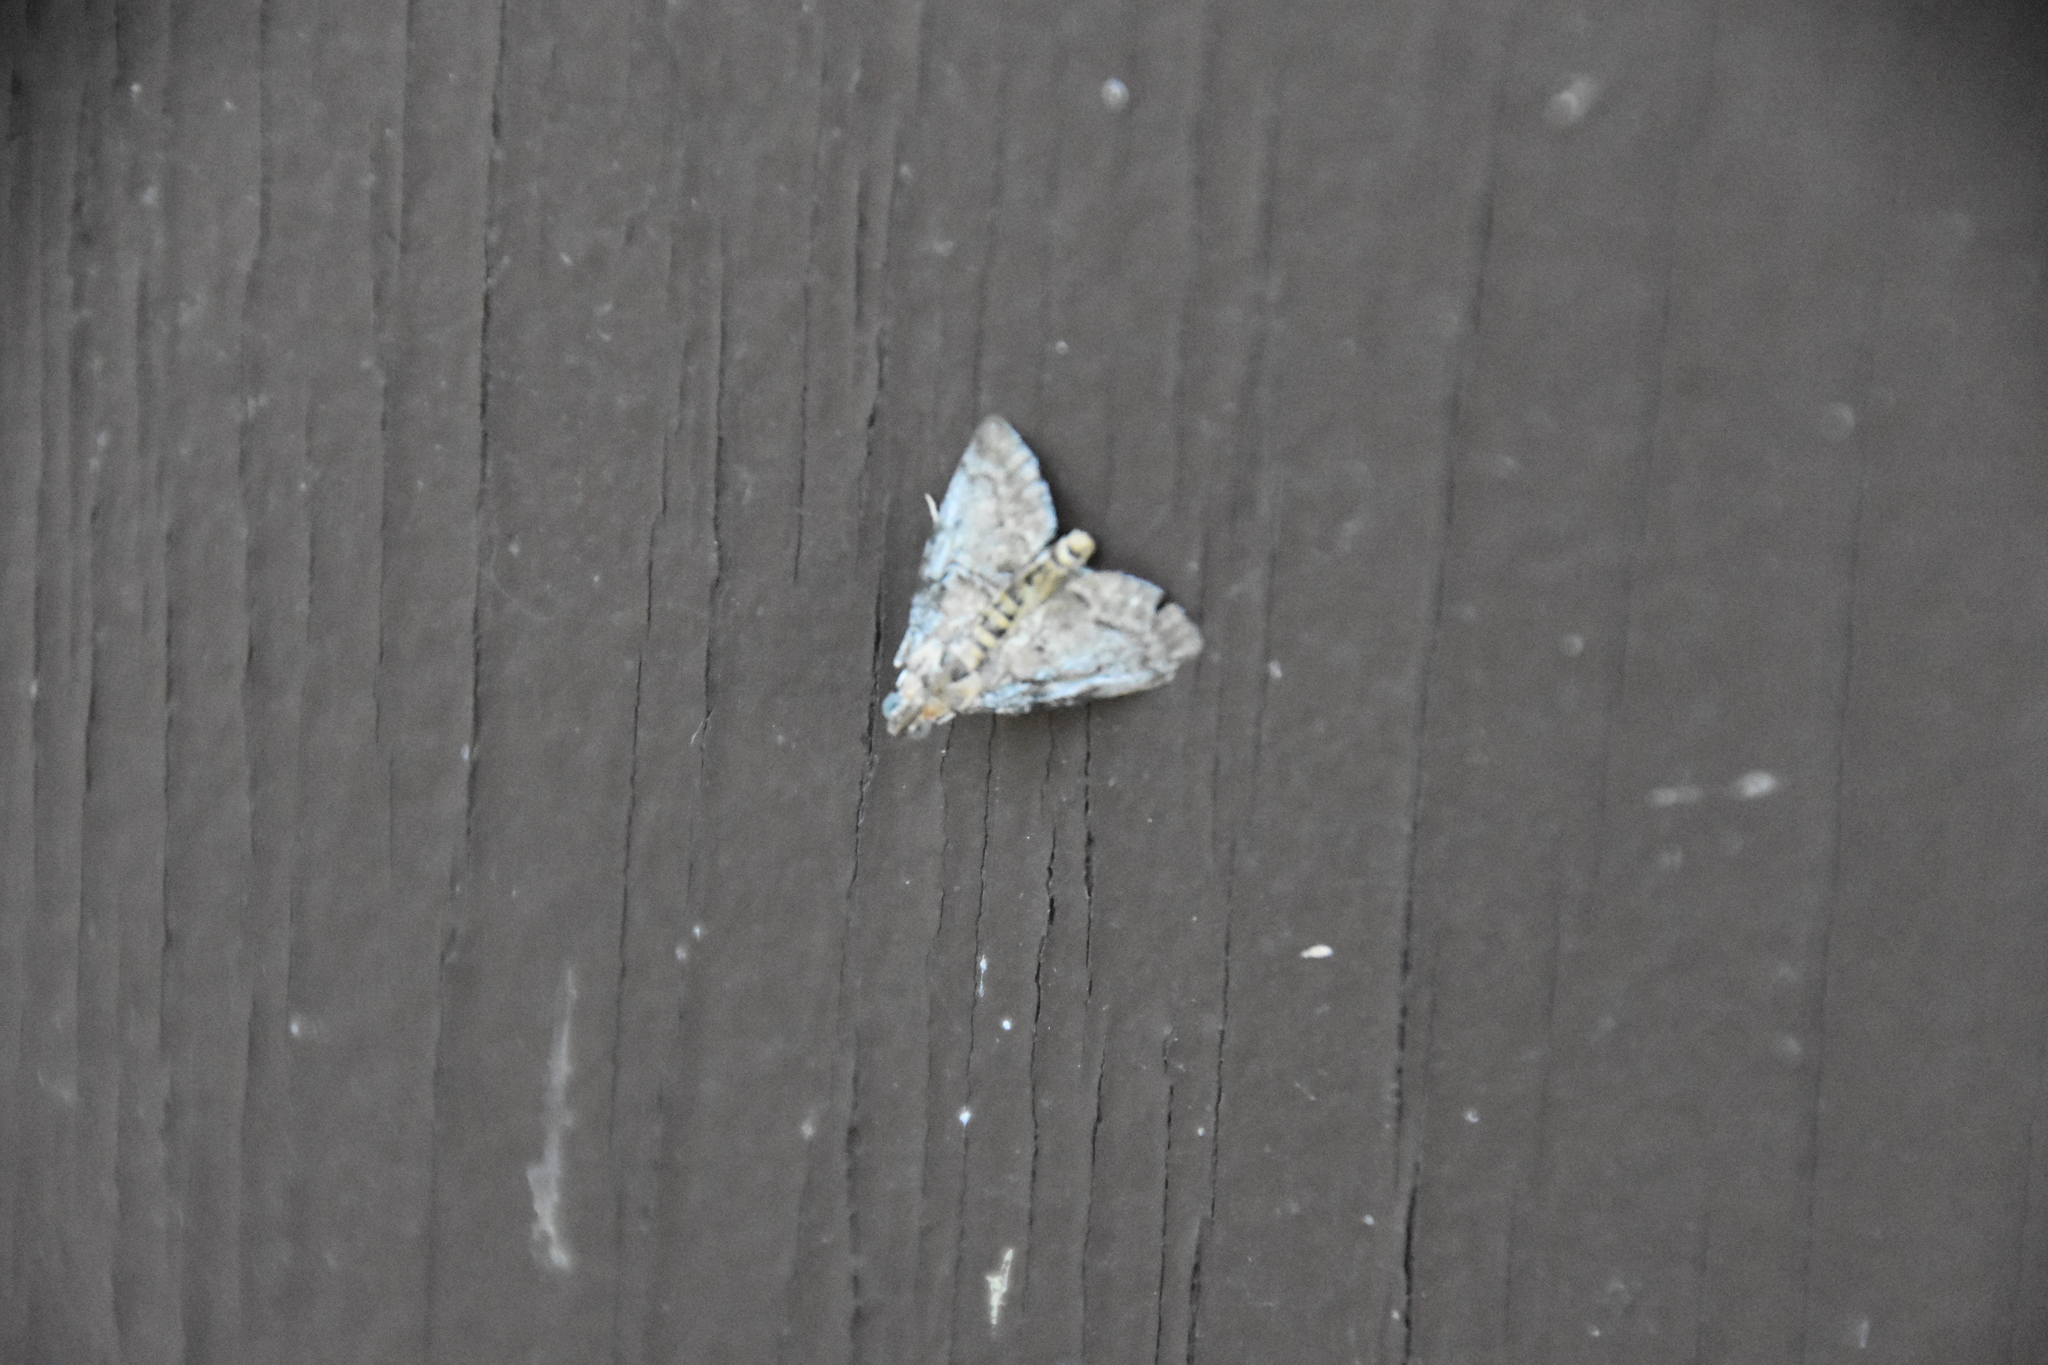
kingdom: Animalia
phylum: Arthropoda
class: Insecta
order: Lepidoptera
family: Crambidae
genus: Elophila
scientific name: Elophila icciusalis
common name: Pondside pyralid moth
